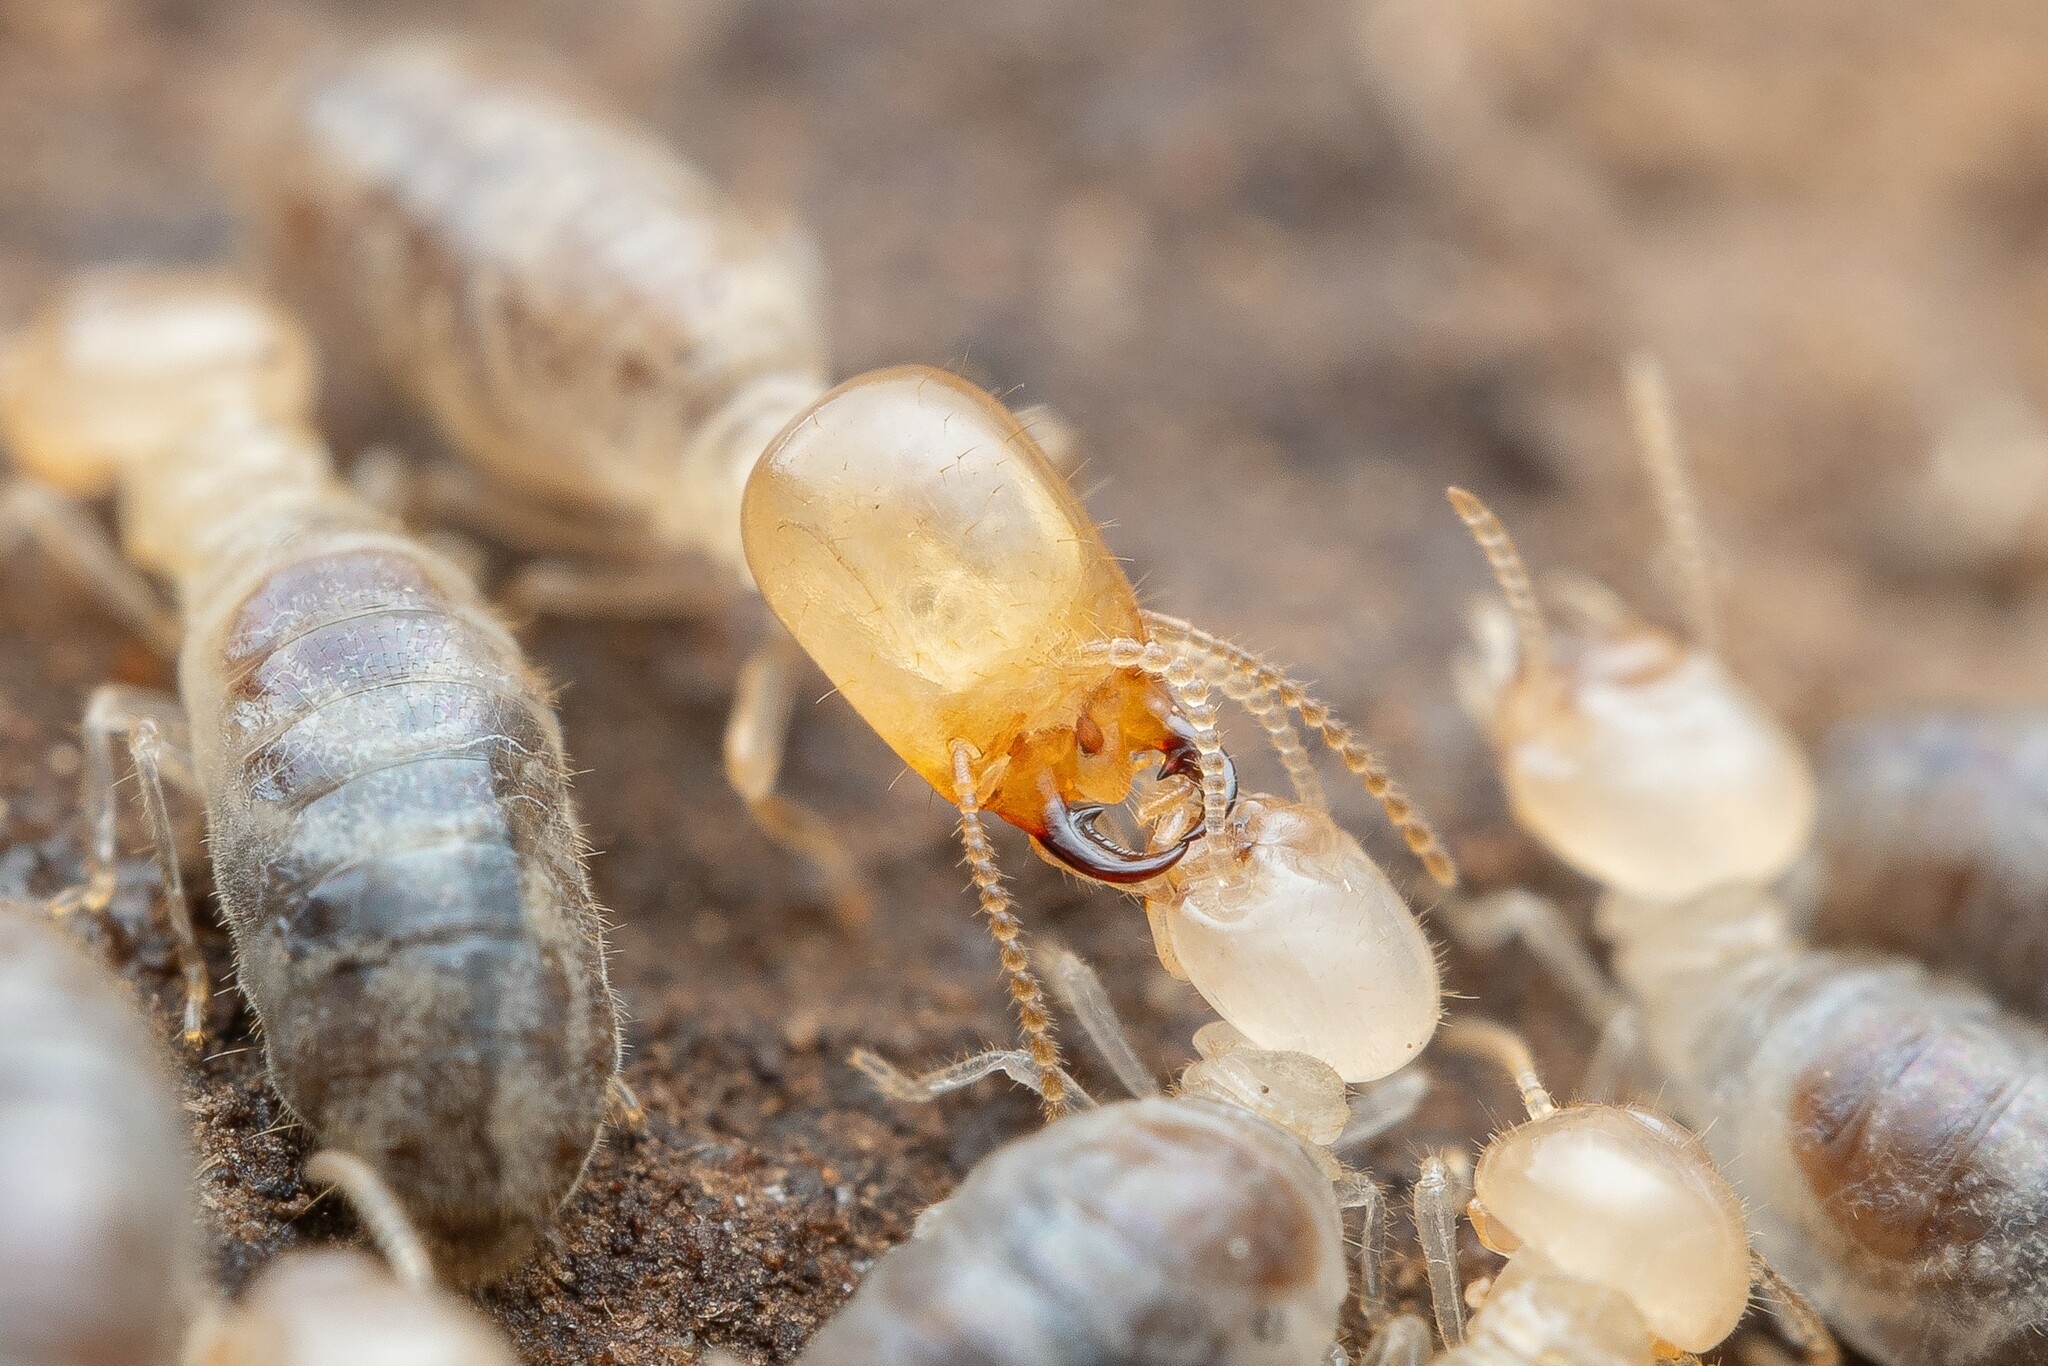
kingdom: Animalia
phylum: Arthropoda
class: Insecta
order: Blattodea
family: Termitidae
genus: Amitermes
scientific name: Amitermes wheeleri
